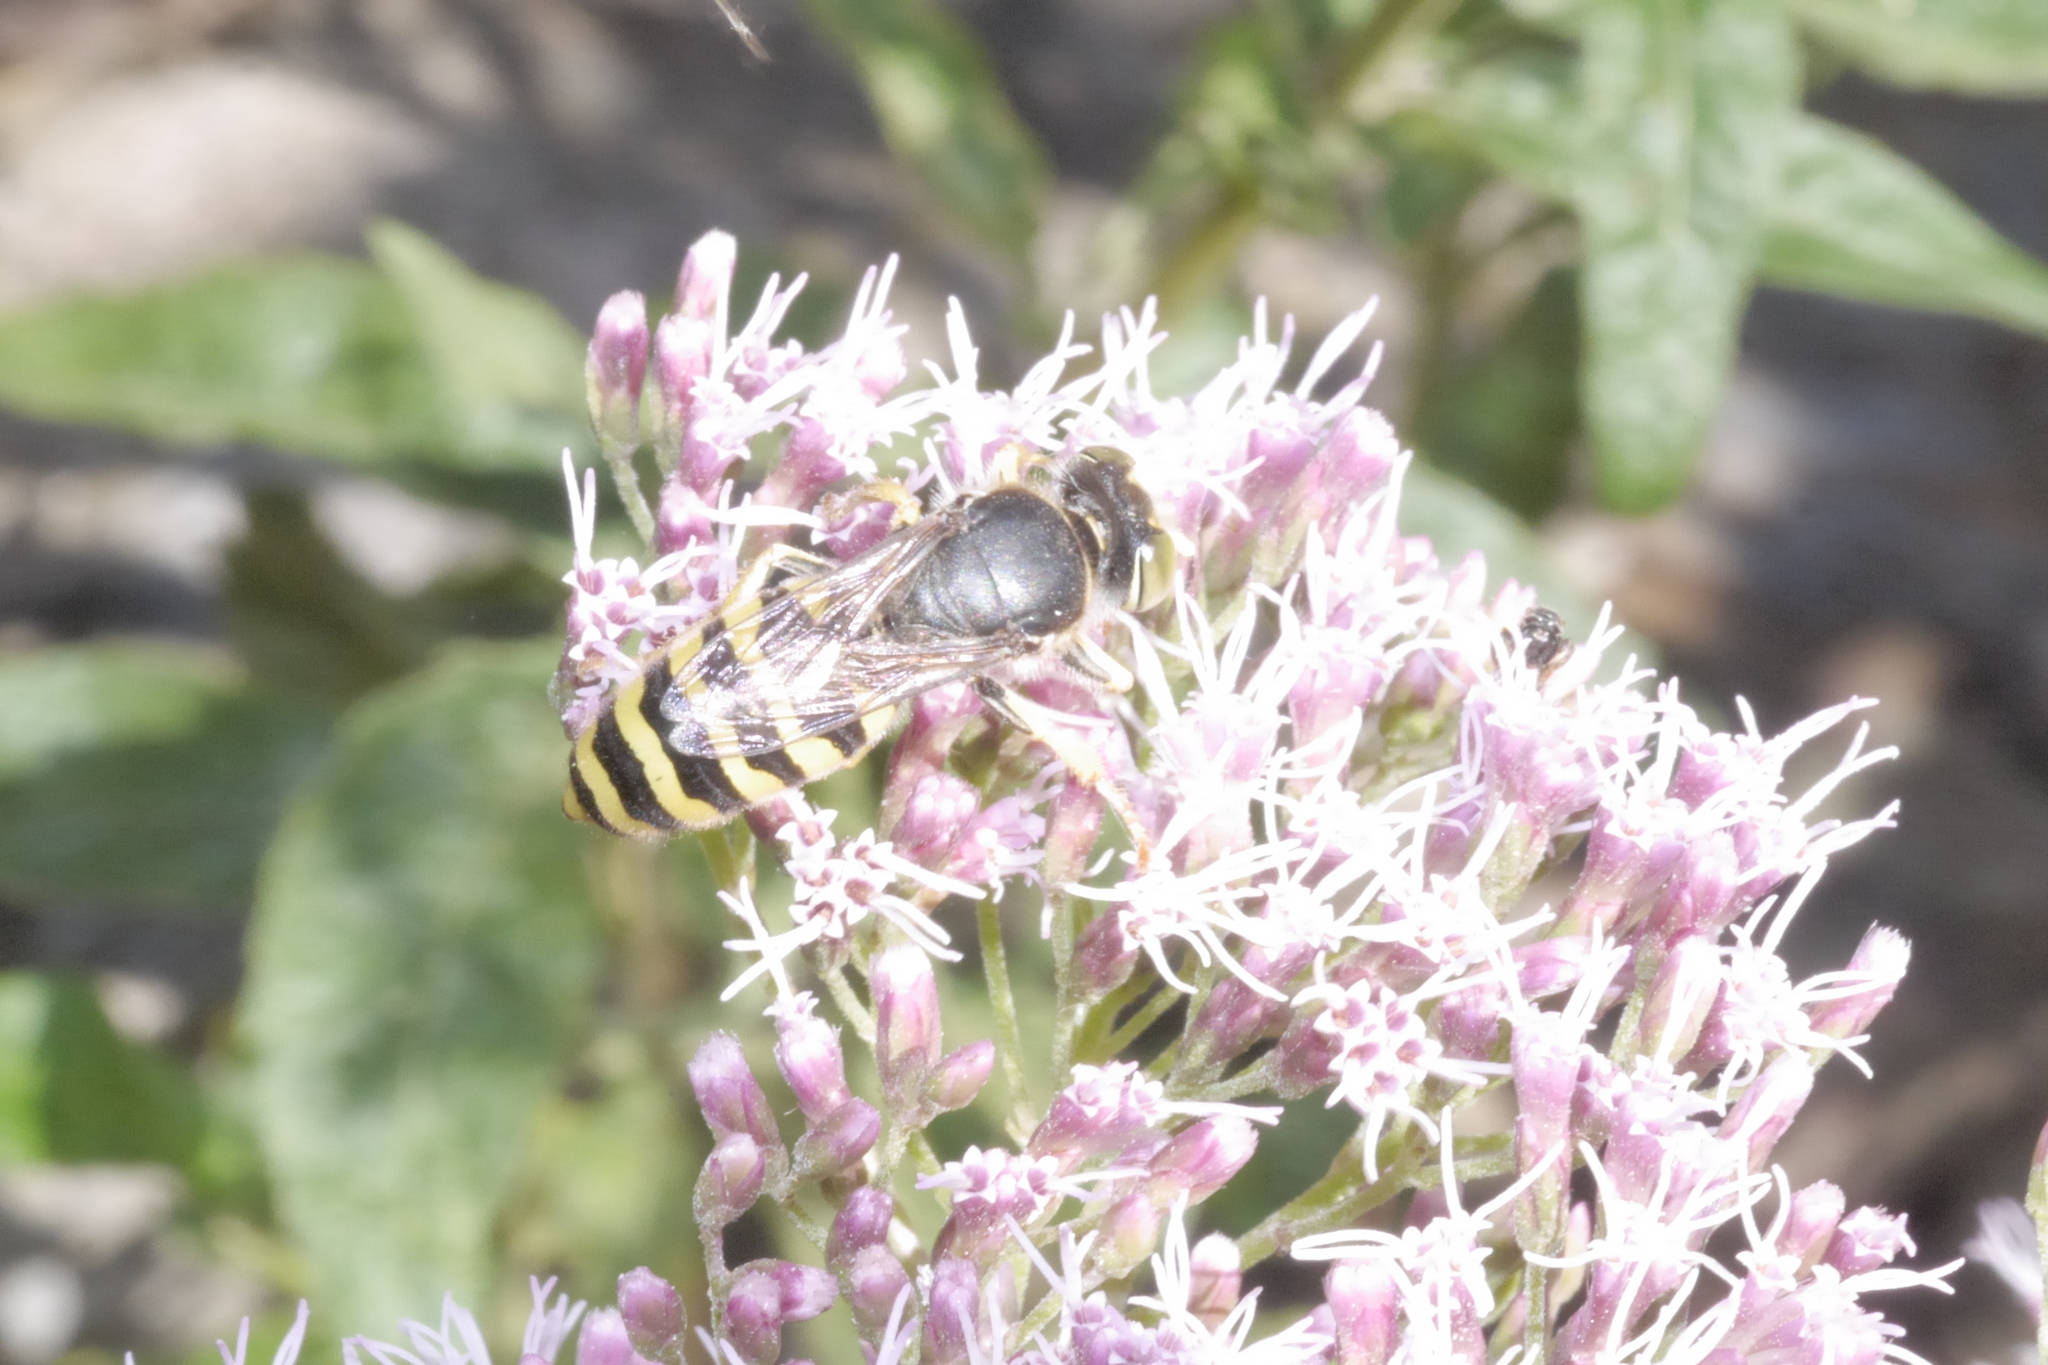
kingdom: Animalia
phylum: Arthropoda
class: Insecta
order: Hymenoptera
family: Crabronidae
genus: Bembix
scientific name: Bembix rostrata
